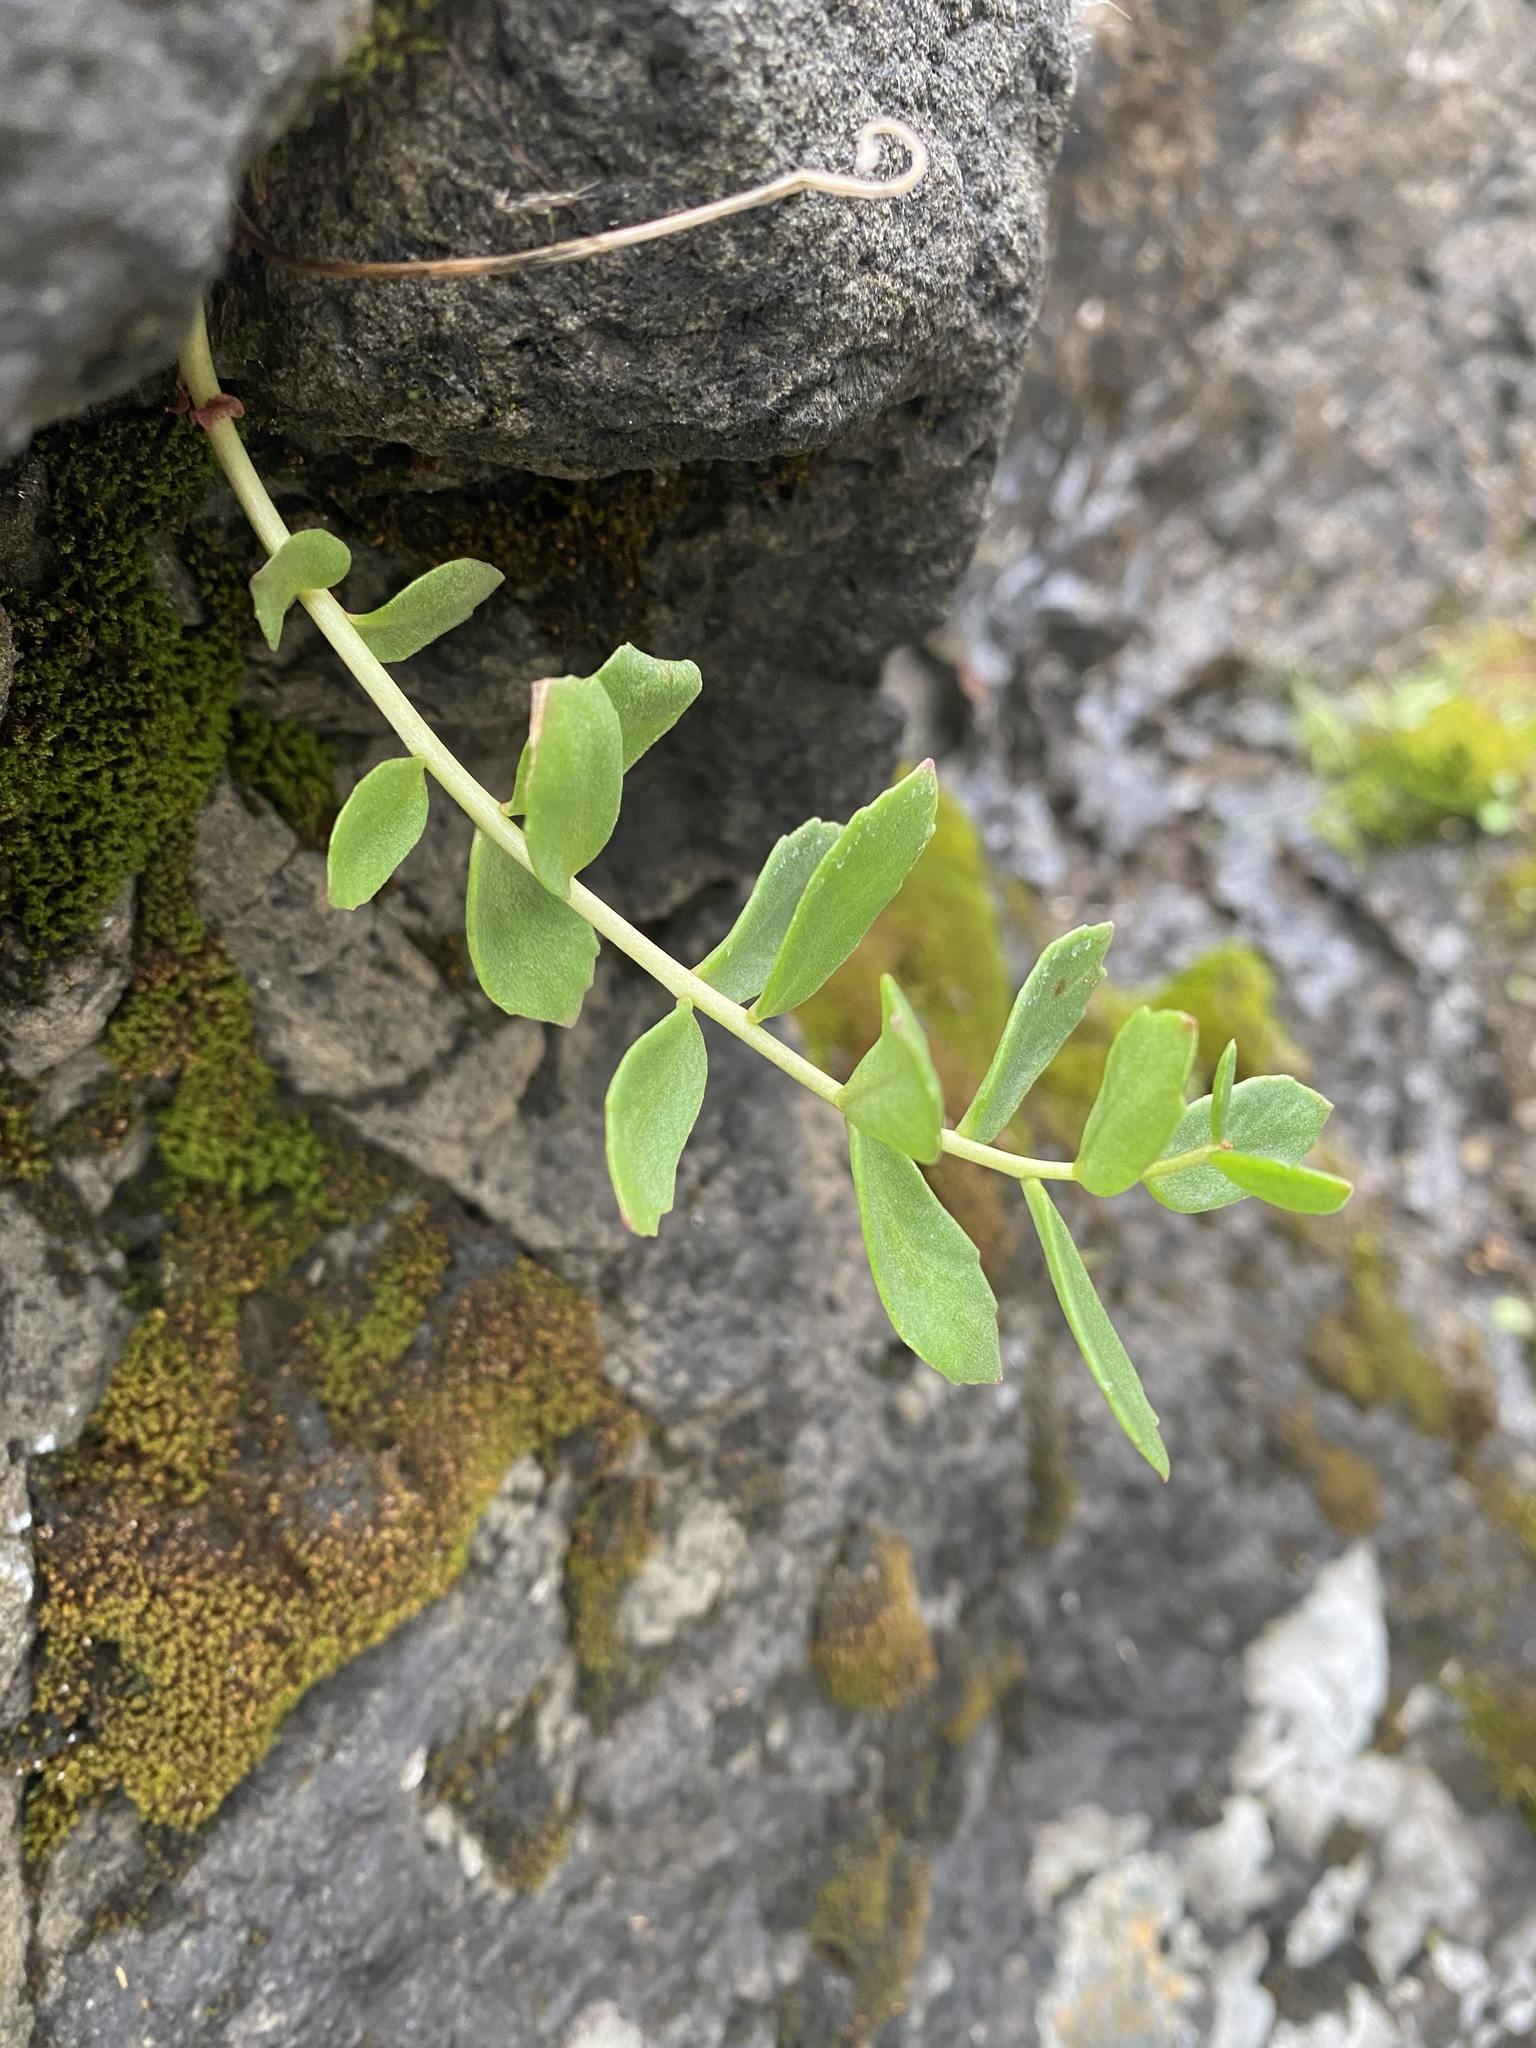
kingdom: Plantae
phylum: Tracheophyta
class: Magnoliopsida
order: Saxifragales
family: Crassulaceae
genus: Rhodiola
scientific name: Rhodiola rosea
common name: Roseroot
